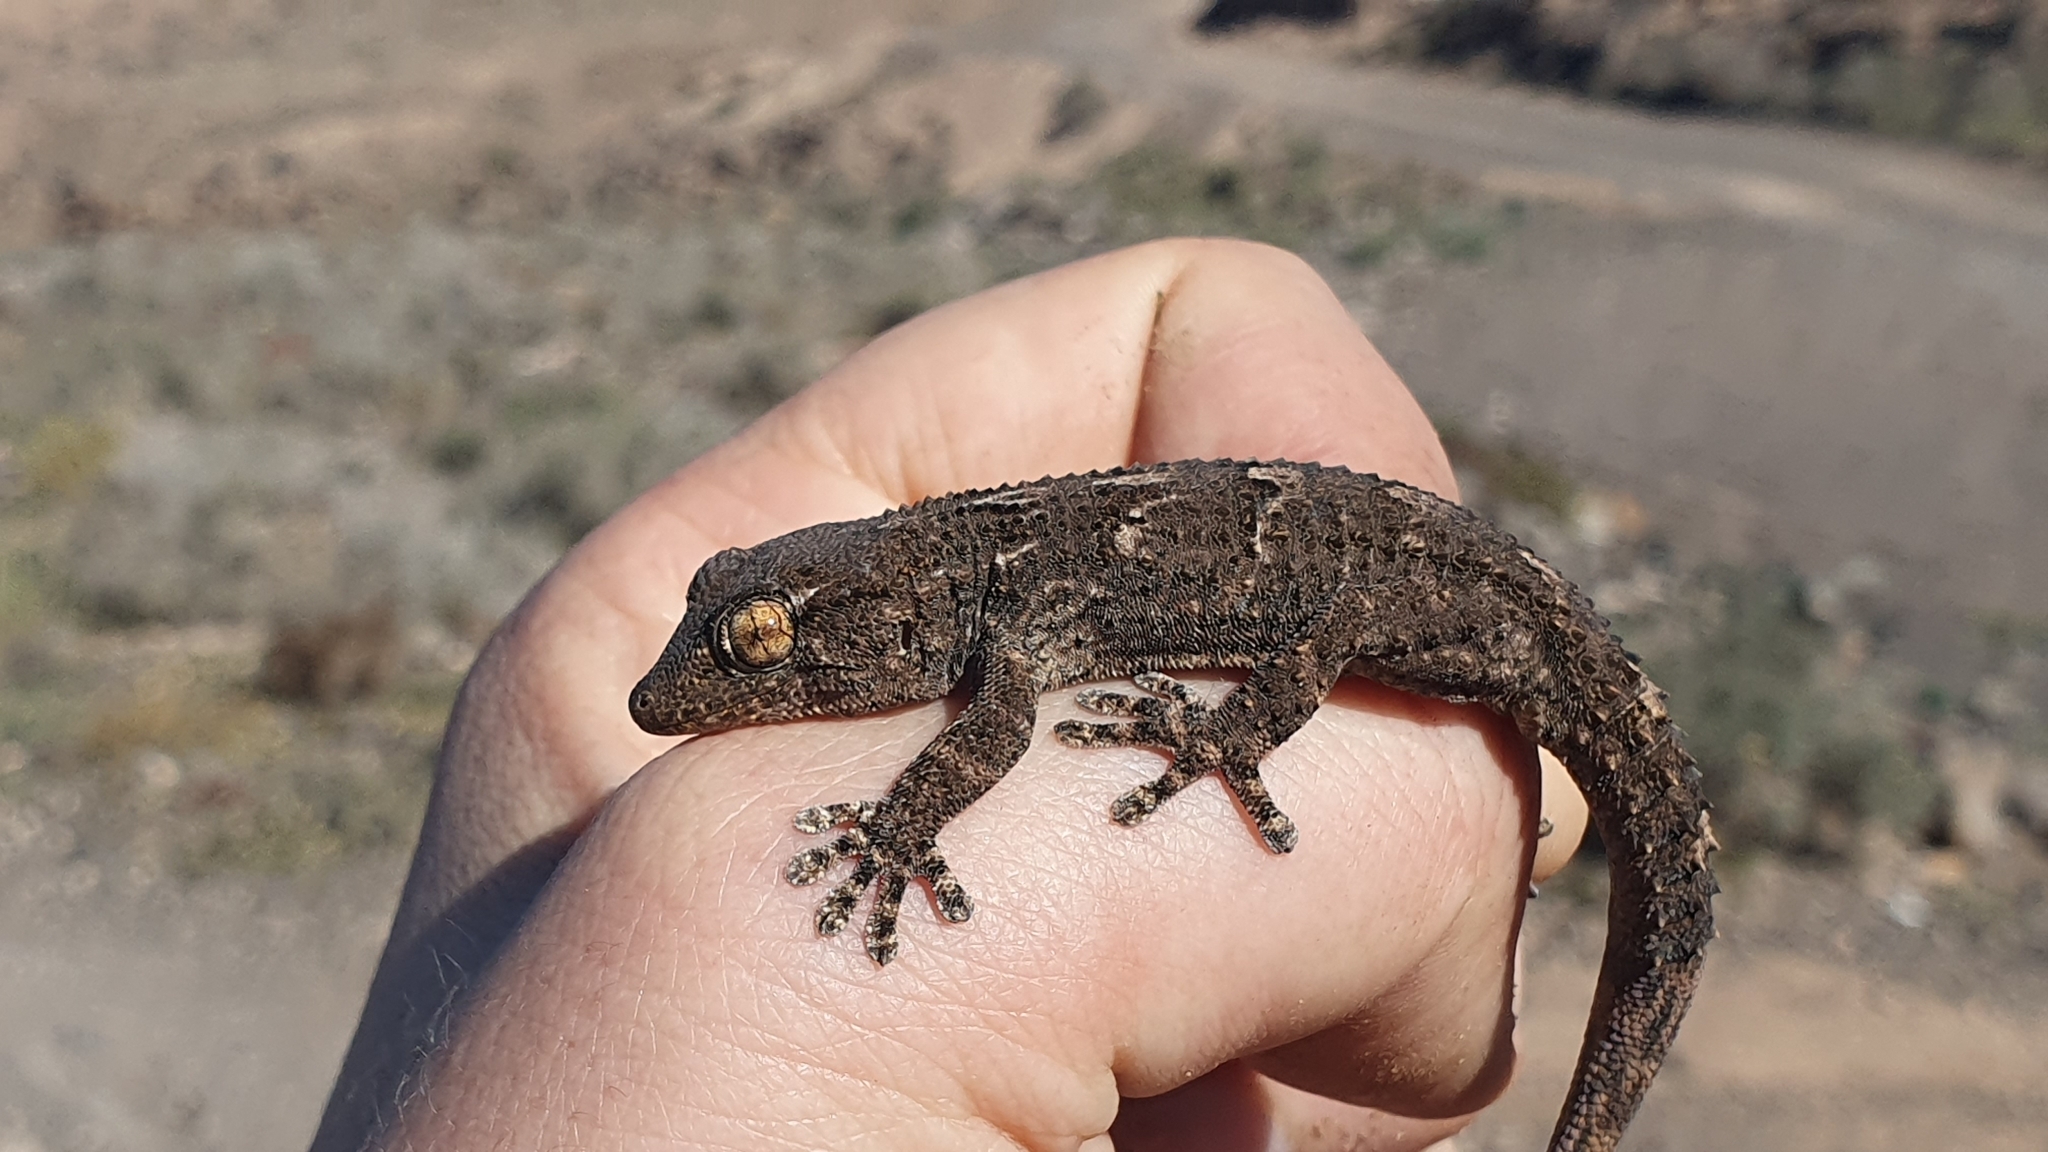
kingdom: Animalia
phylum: Chordata
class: Squamata
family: Phyllodactylidae
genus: Tarentola
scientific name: Tarentola angustimentalis
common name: East canary gecko
